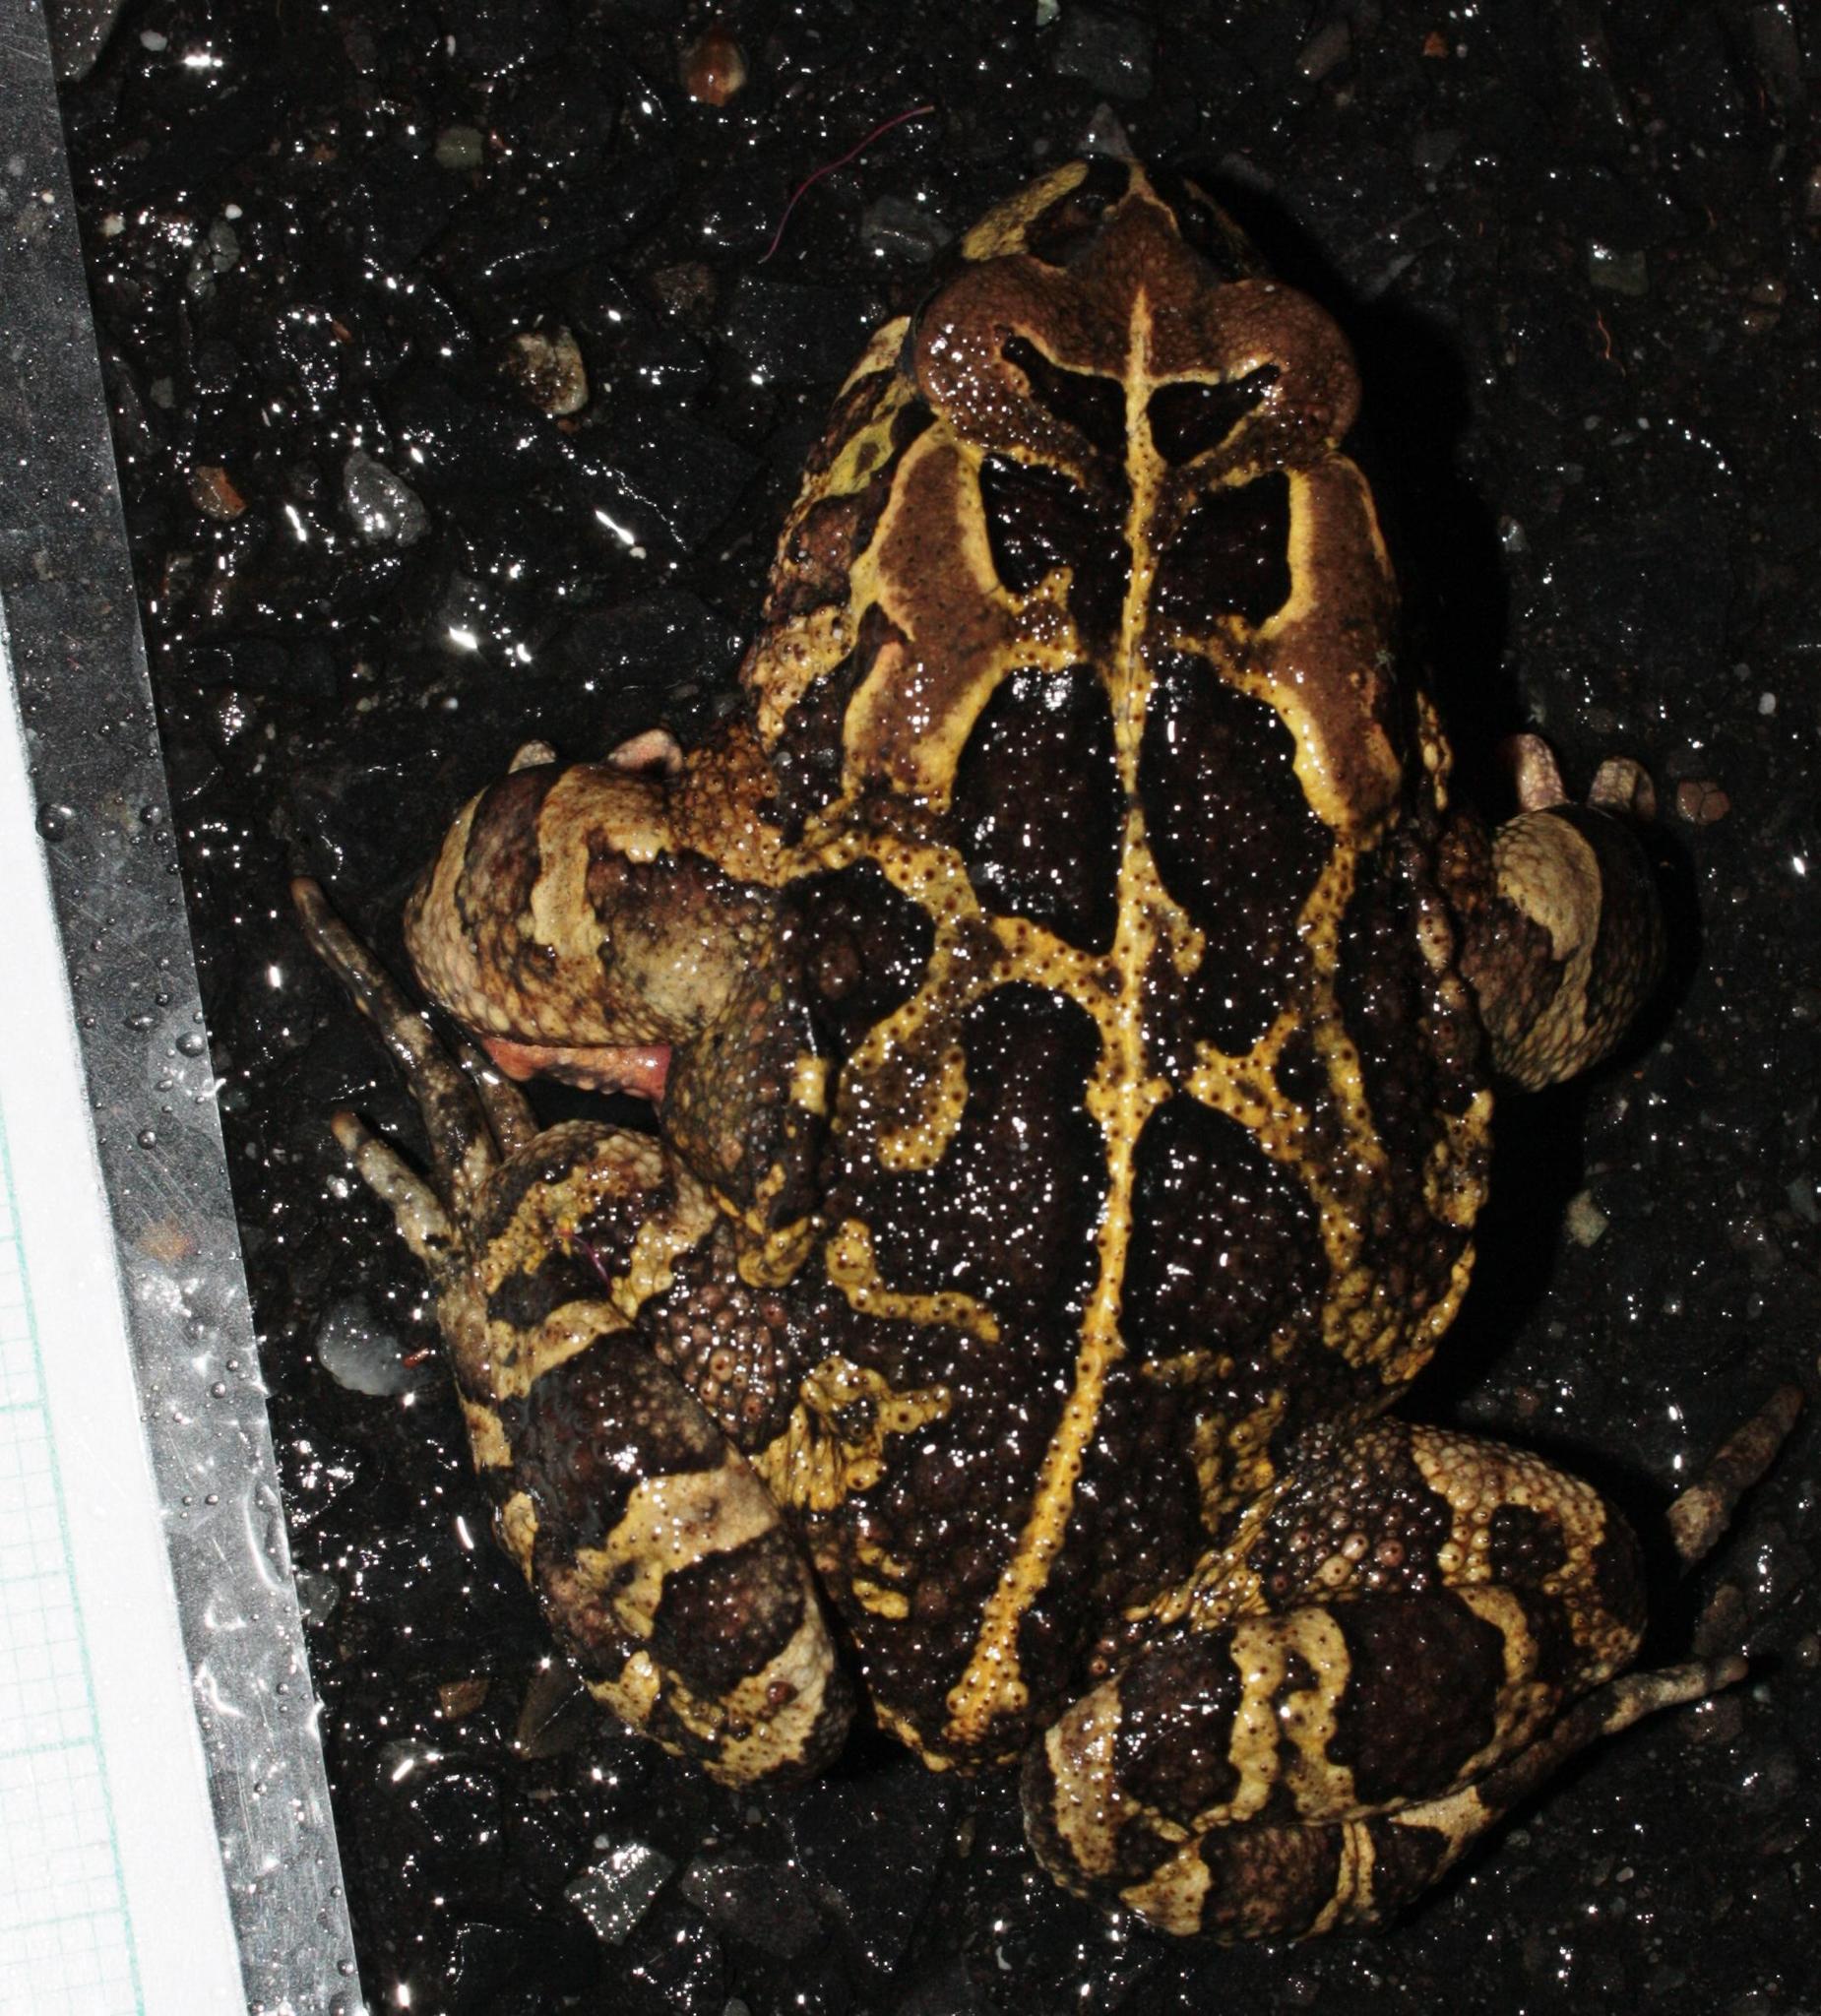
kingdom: Animalia
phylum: Chordata
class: Amphibia
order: Anura
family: Bufonidae
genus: Sclerophrys
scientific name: Sclerophrys pantherina
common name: Panther toad
